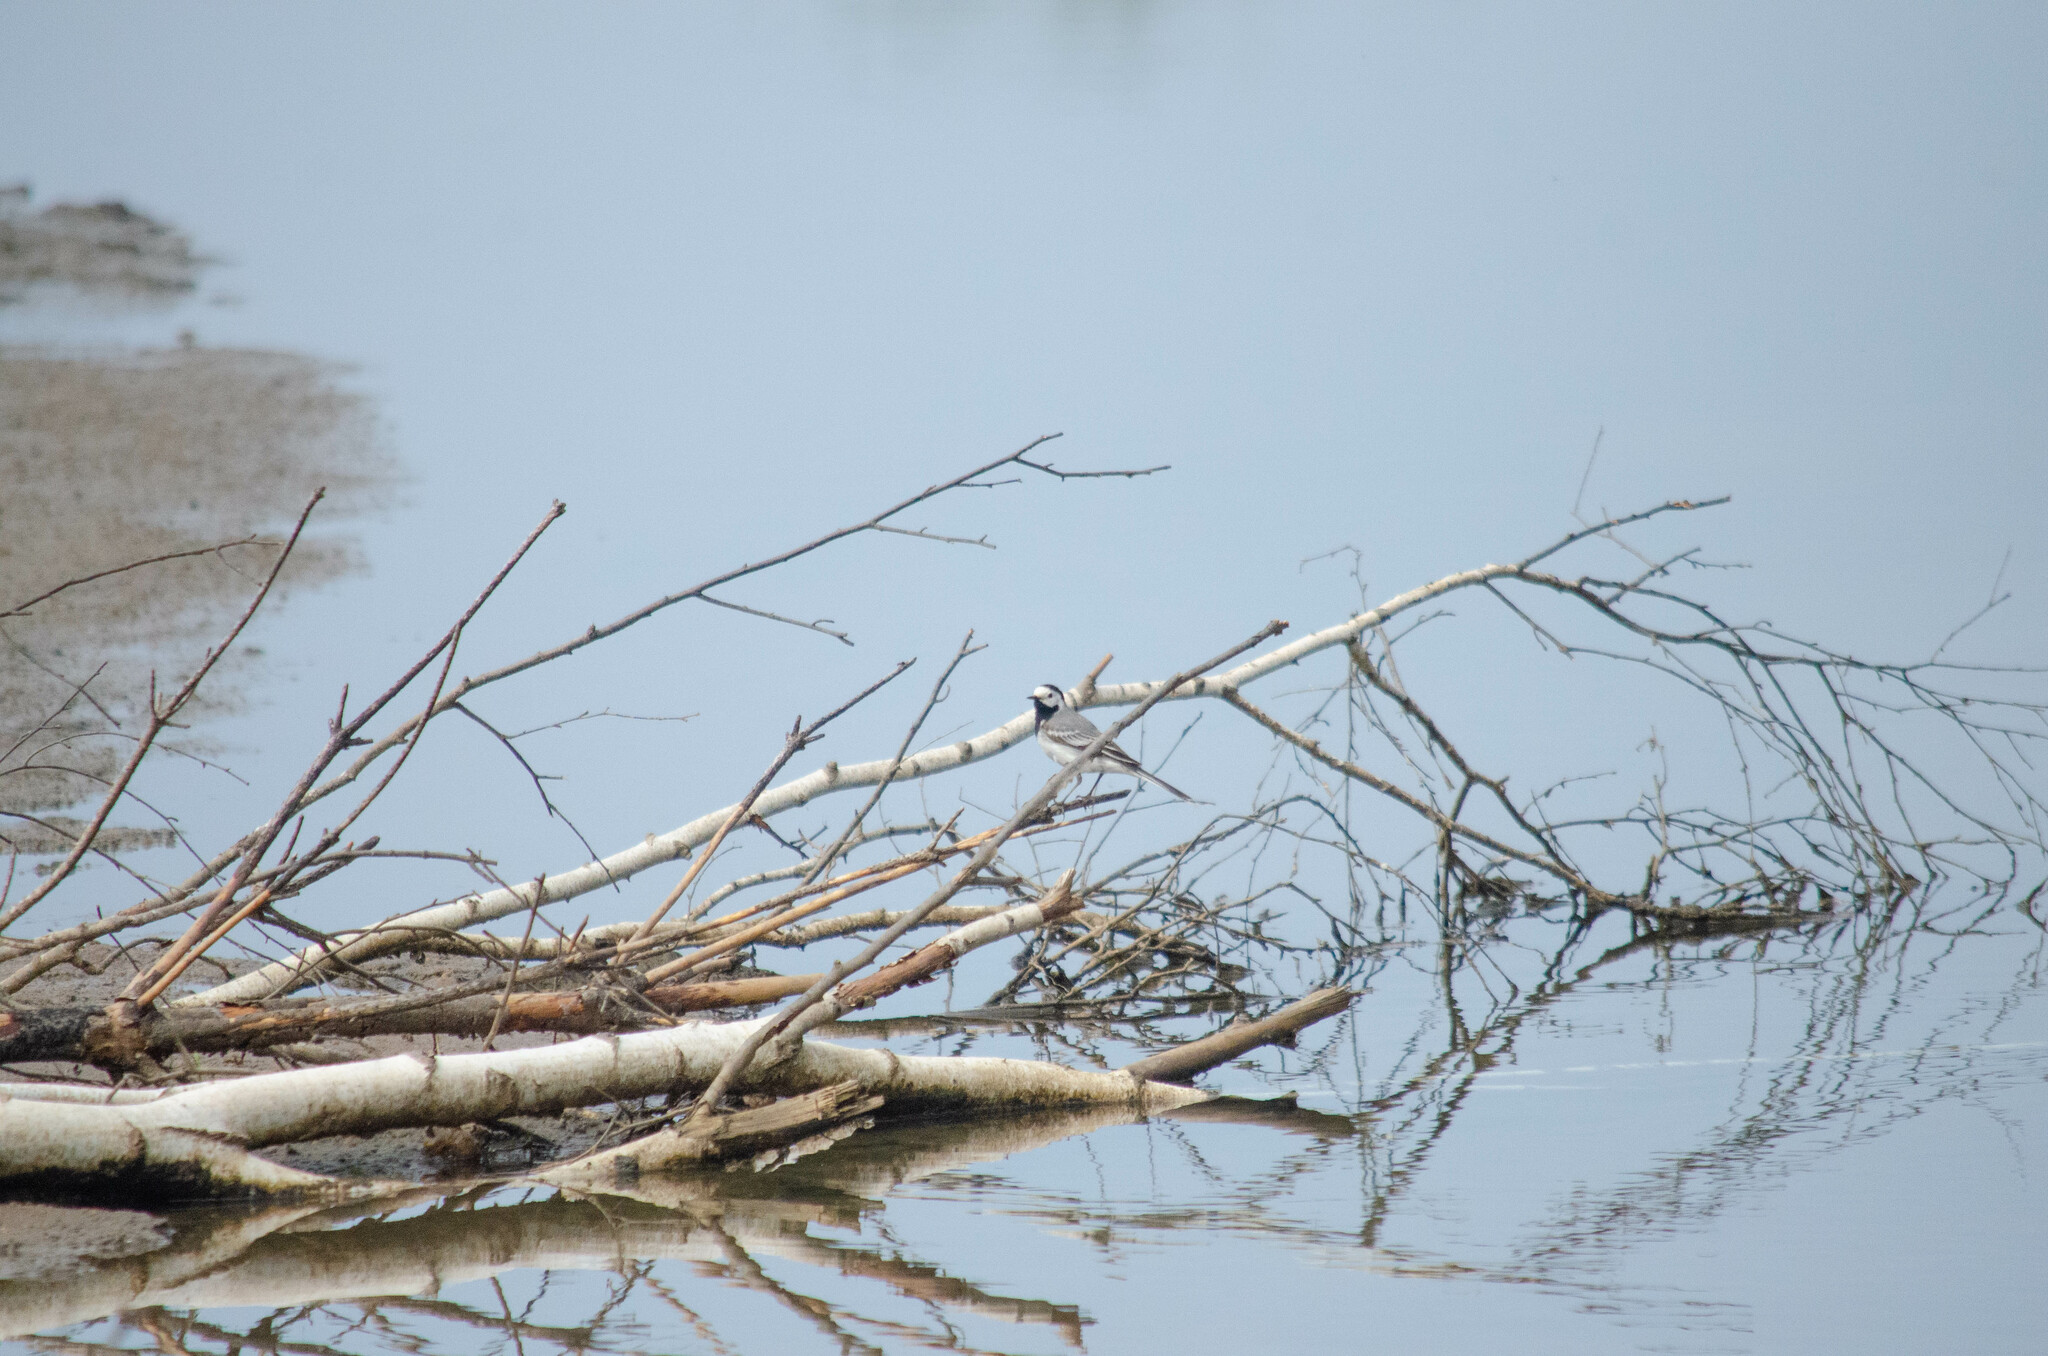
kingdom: Animalia
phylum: Chordata
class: Aves
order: Passeriformes
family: Motacillidae
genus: Motacilla
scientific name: Motacilla alba
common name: White wagtail
